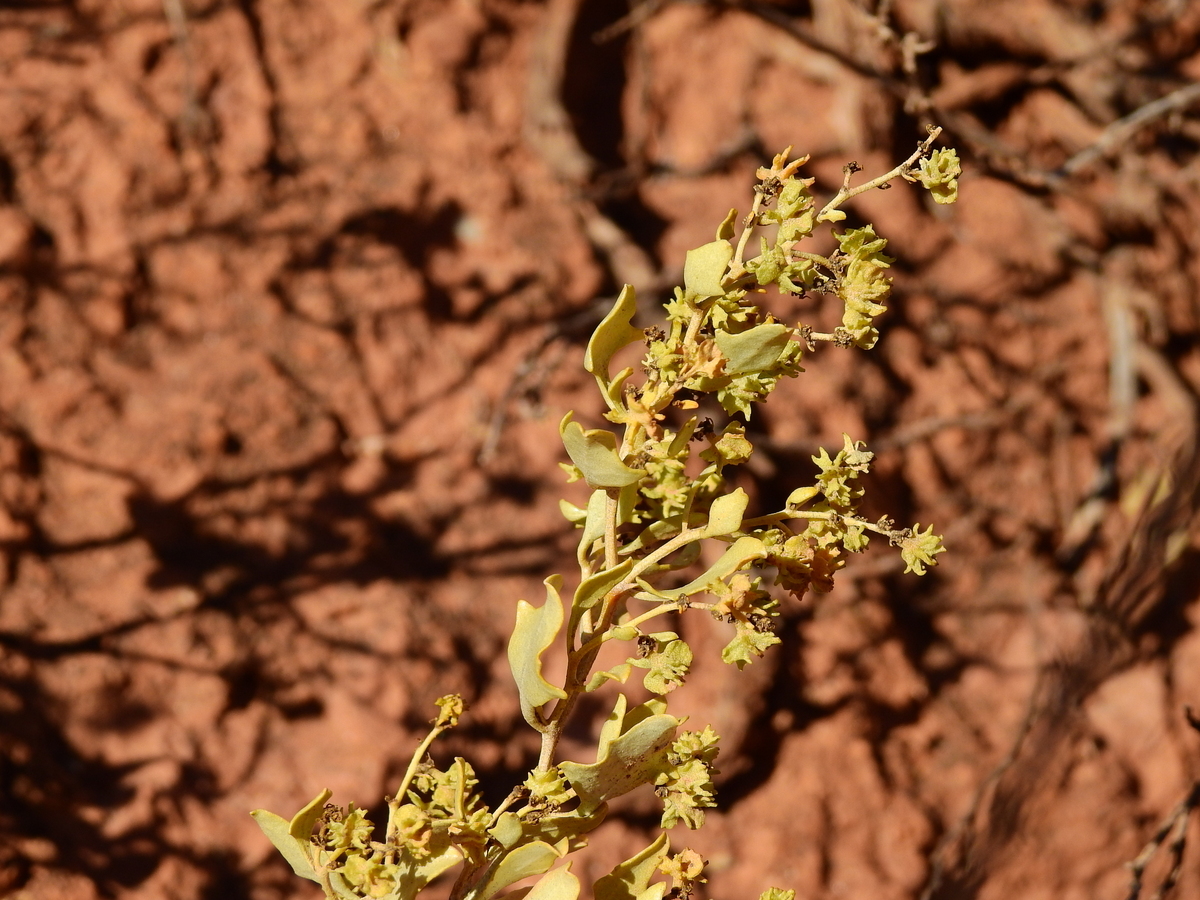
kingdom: Plantae
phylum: Tracheophyta
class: Magnoliopsida
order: Caryophyllales
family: Amaranthaceae
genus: Atriplex
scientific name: Atriplex lithophila
